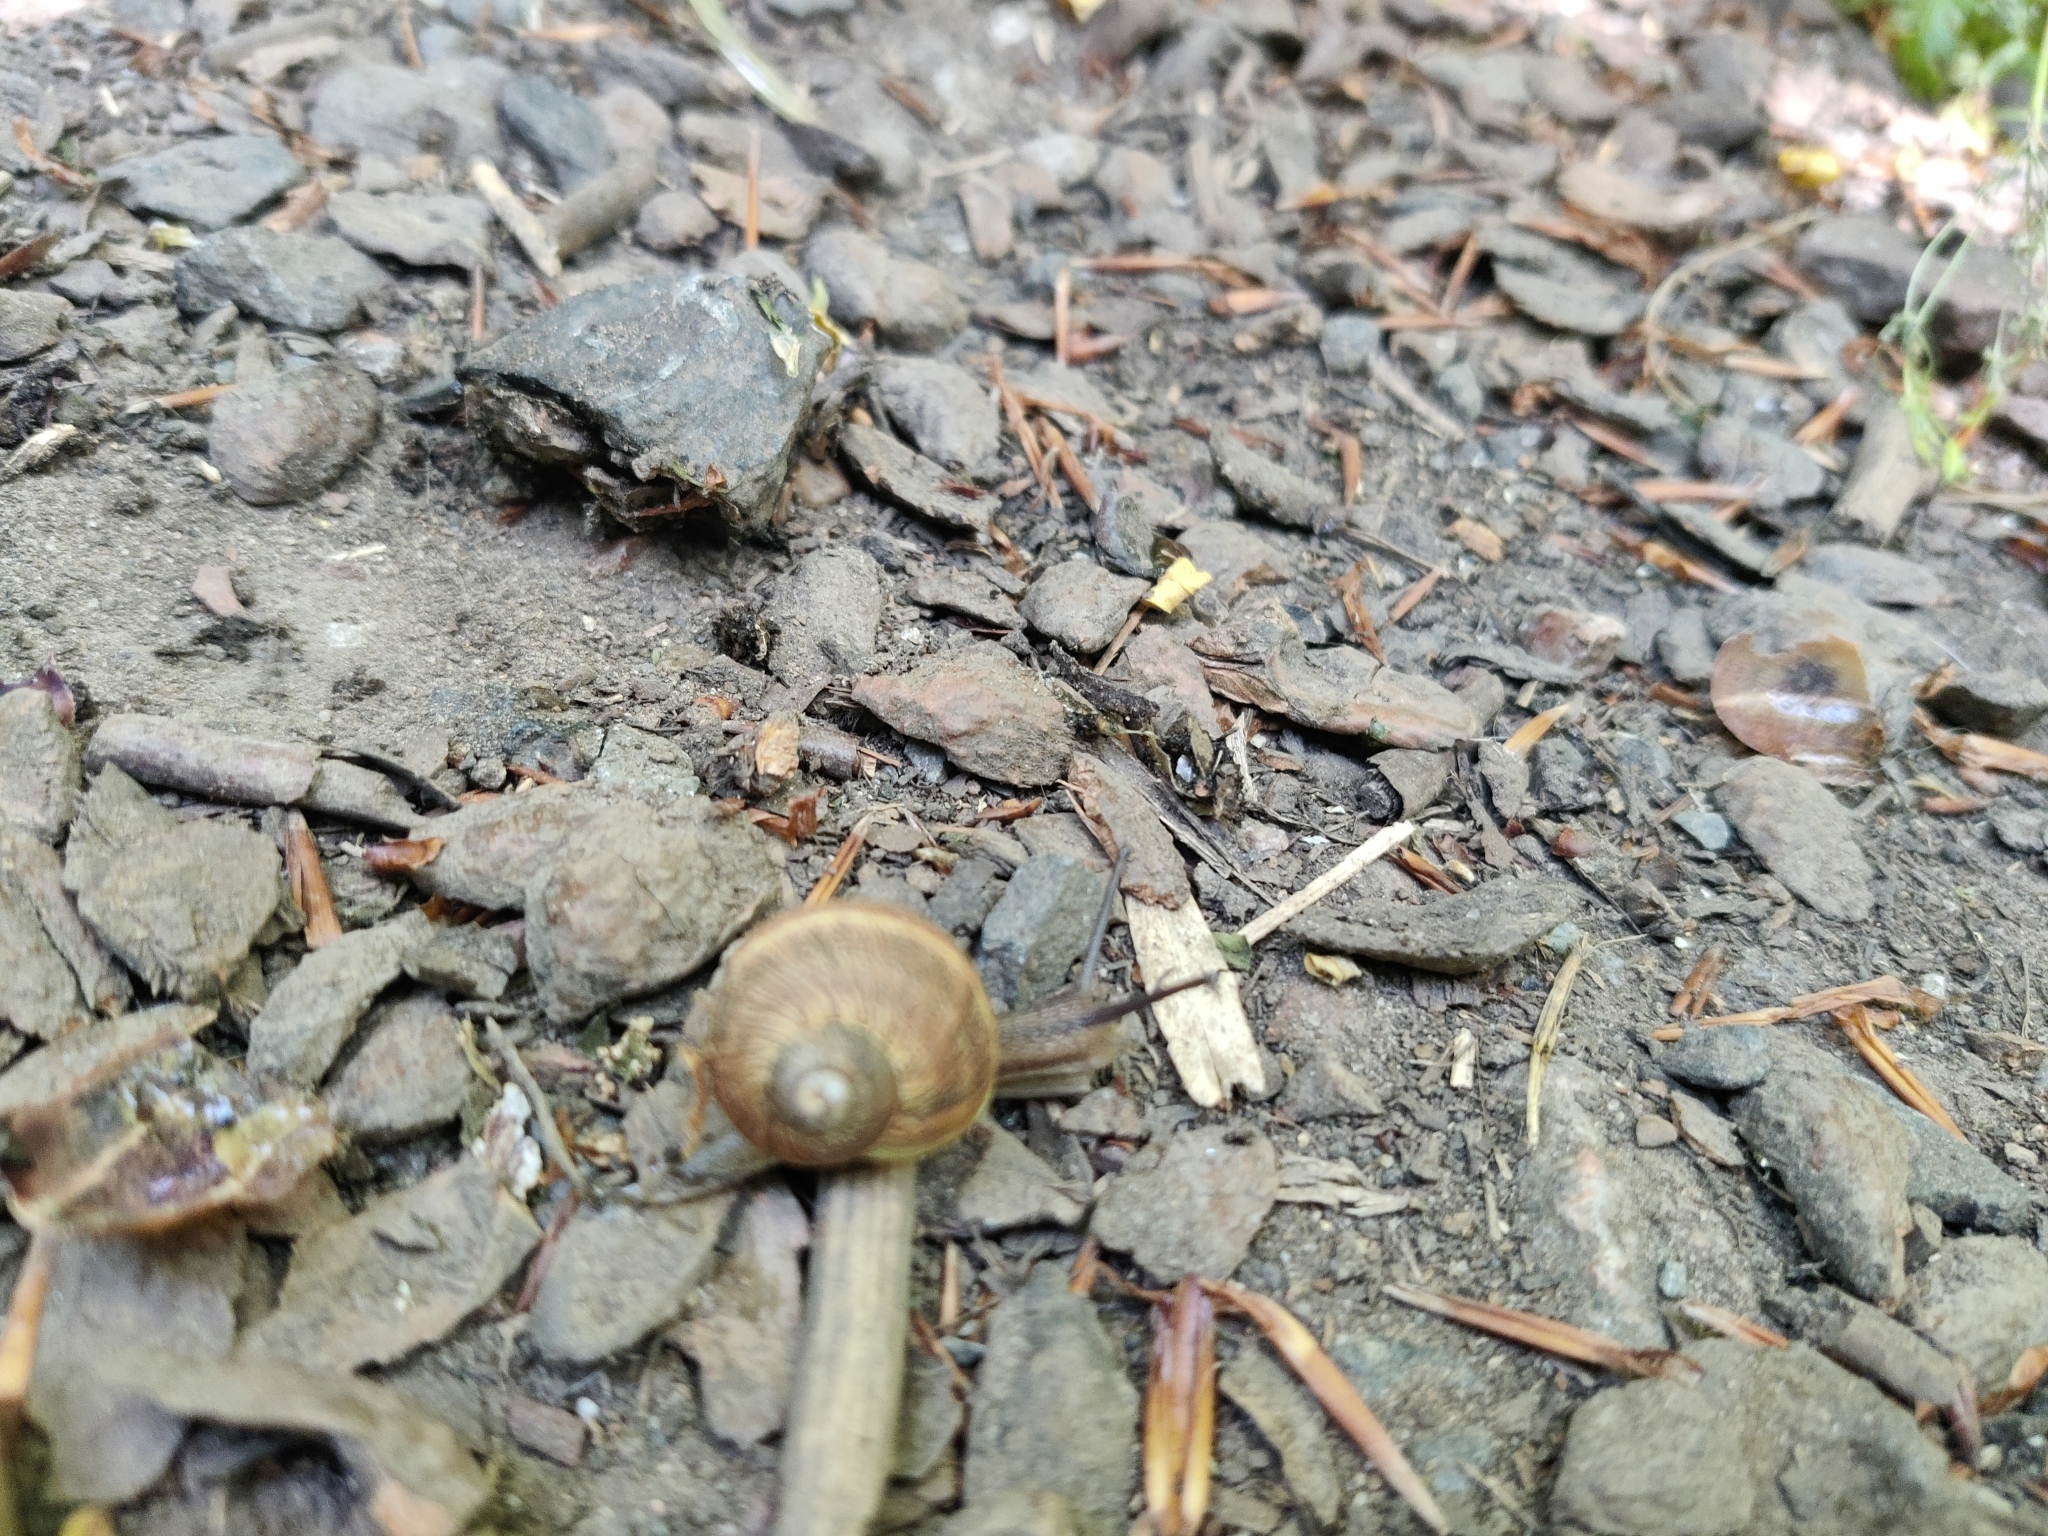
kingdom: Animalia
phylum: Mollusca
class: Gastropoda
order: Stylommatophora
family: Helicidae
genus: Cornu
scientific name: Cornu aspersum
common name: Brown garden snail
